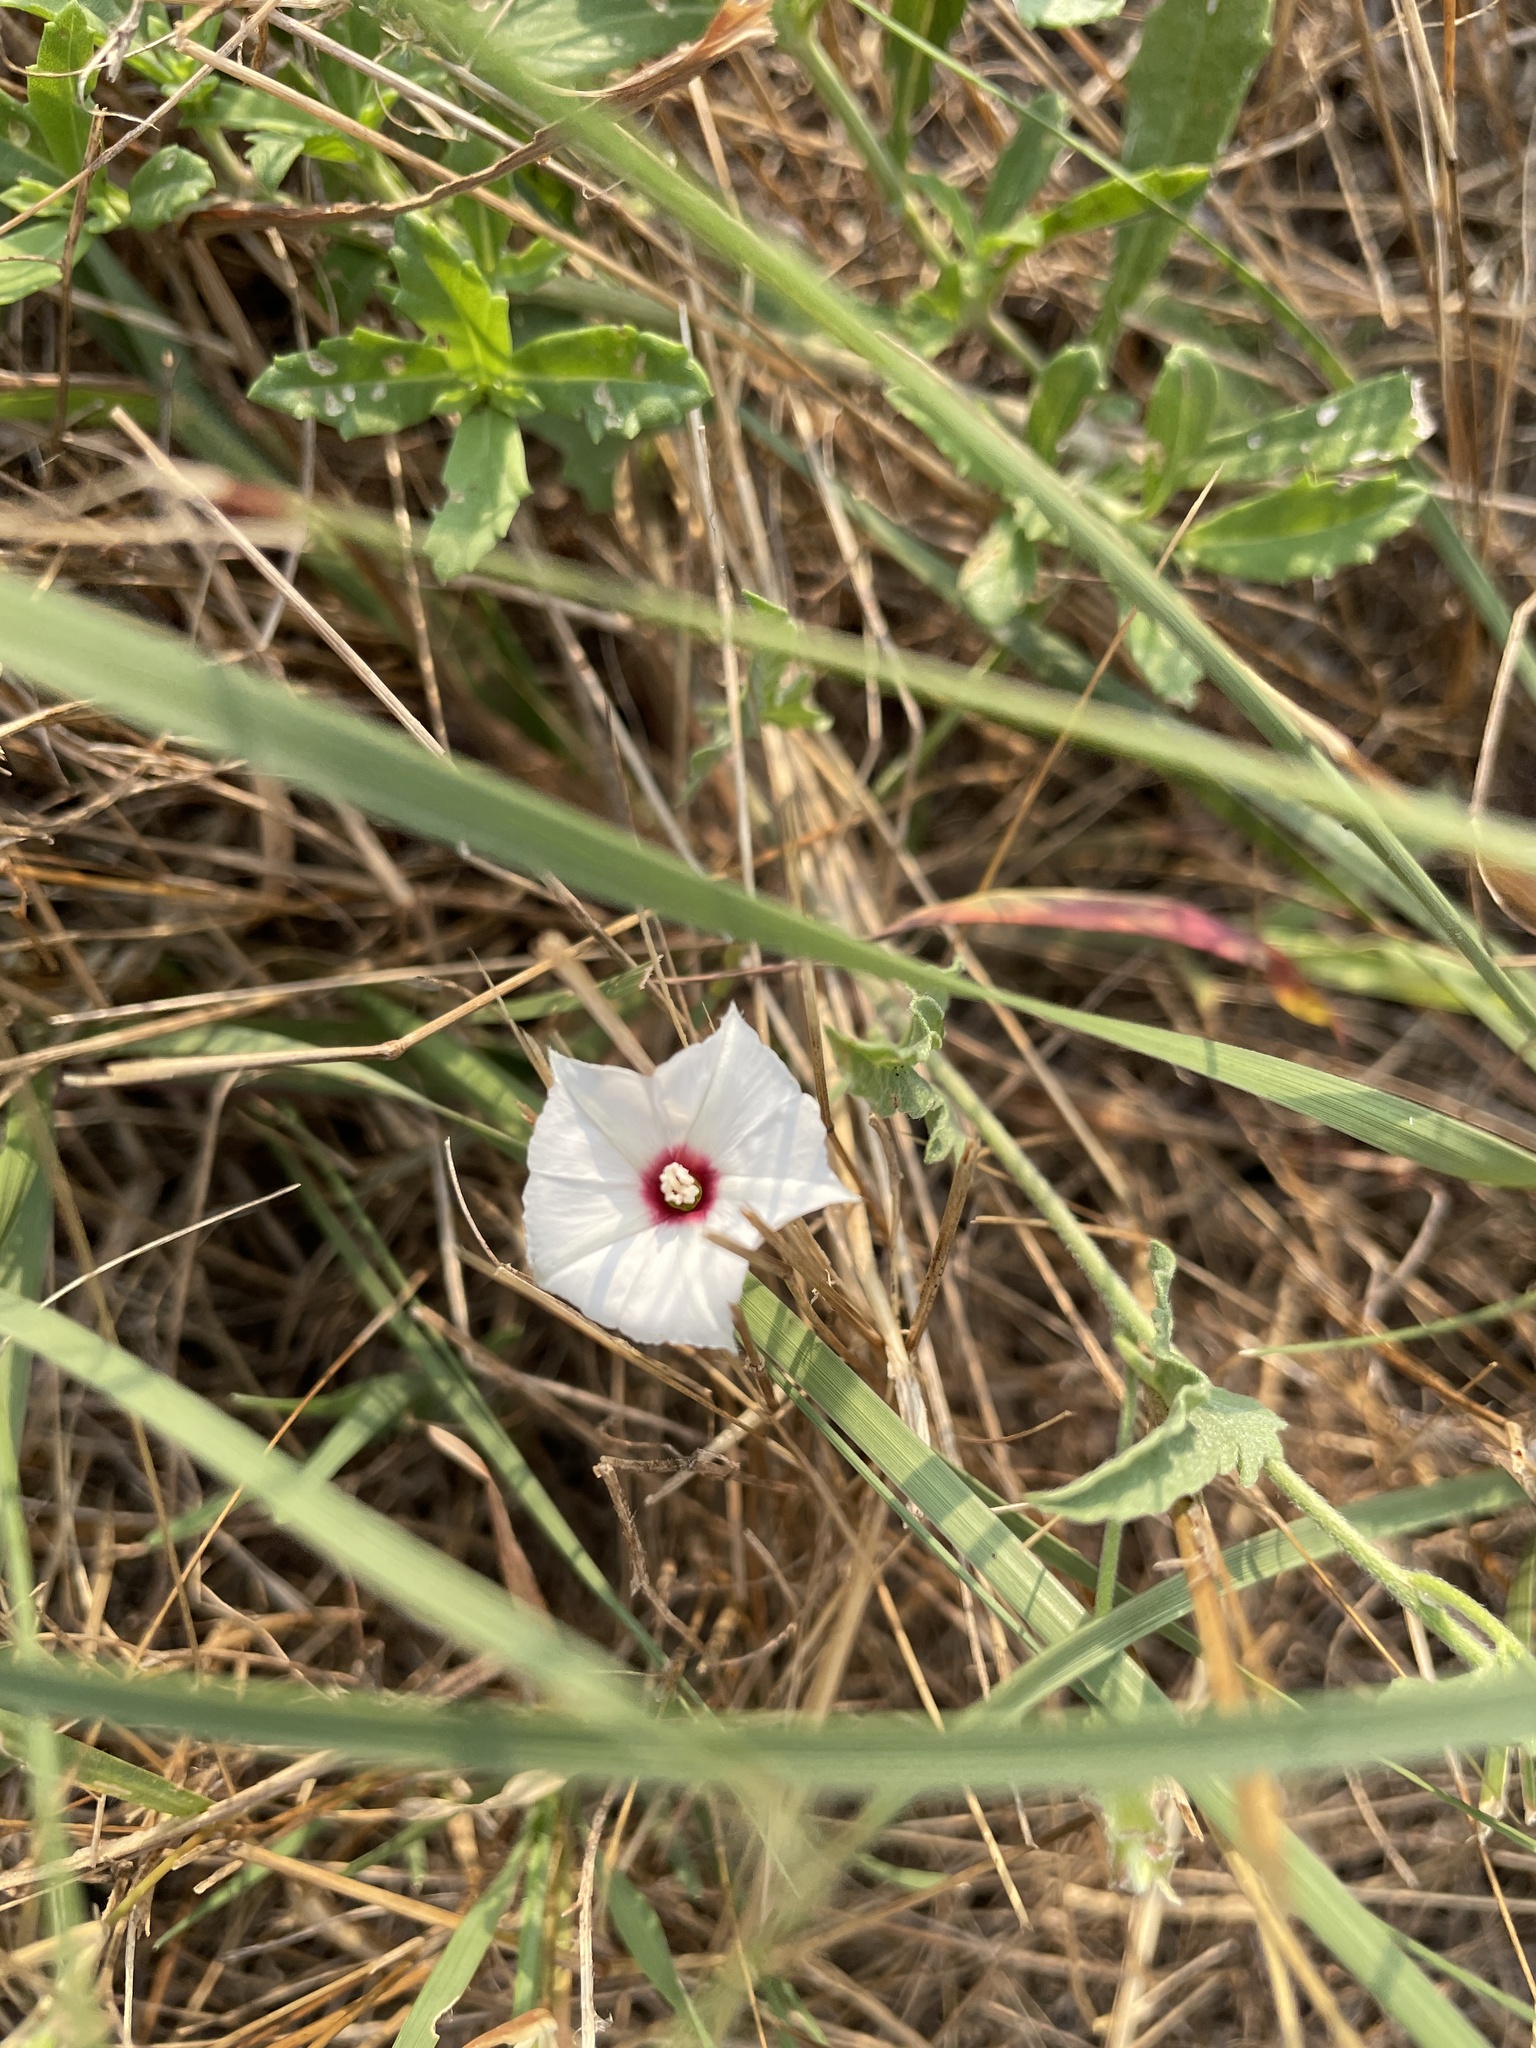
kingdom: Plantae
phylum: Tracheophyta
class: Magnoliopsida
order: Solanales
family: Convolvulaceae
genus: Convolvulus
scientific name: Convolvulus equitans
